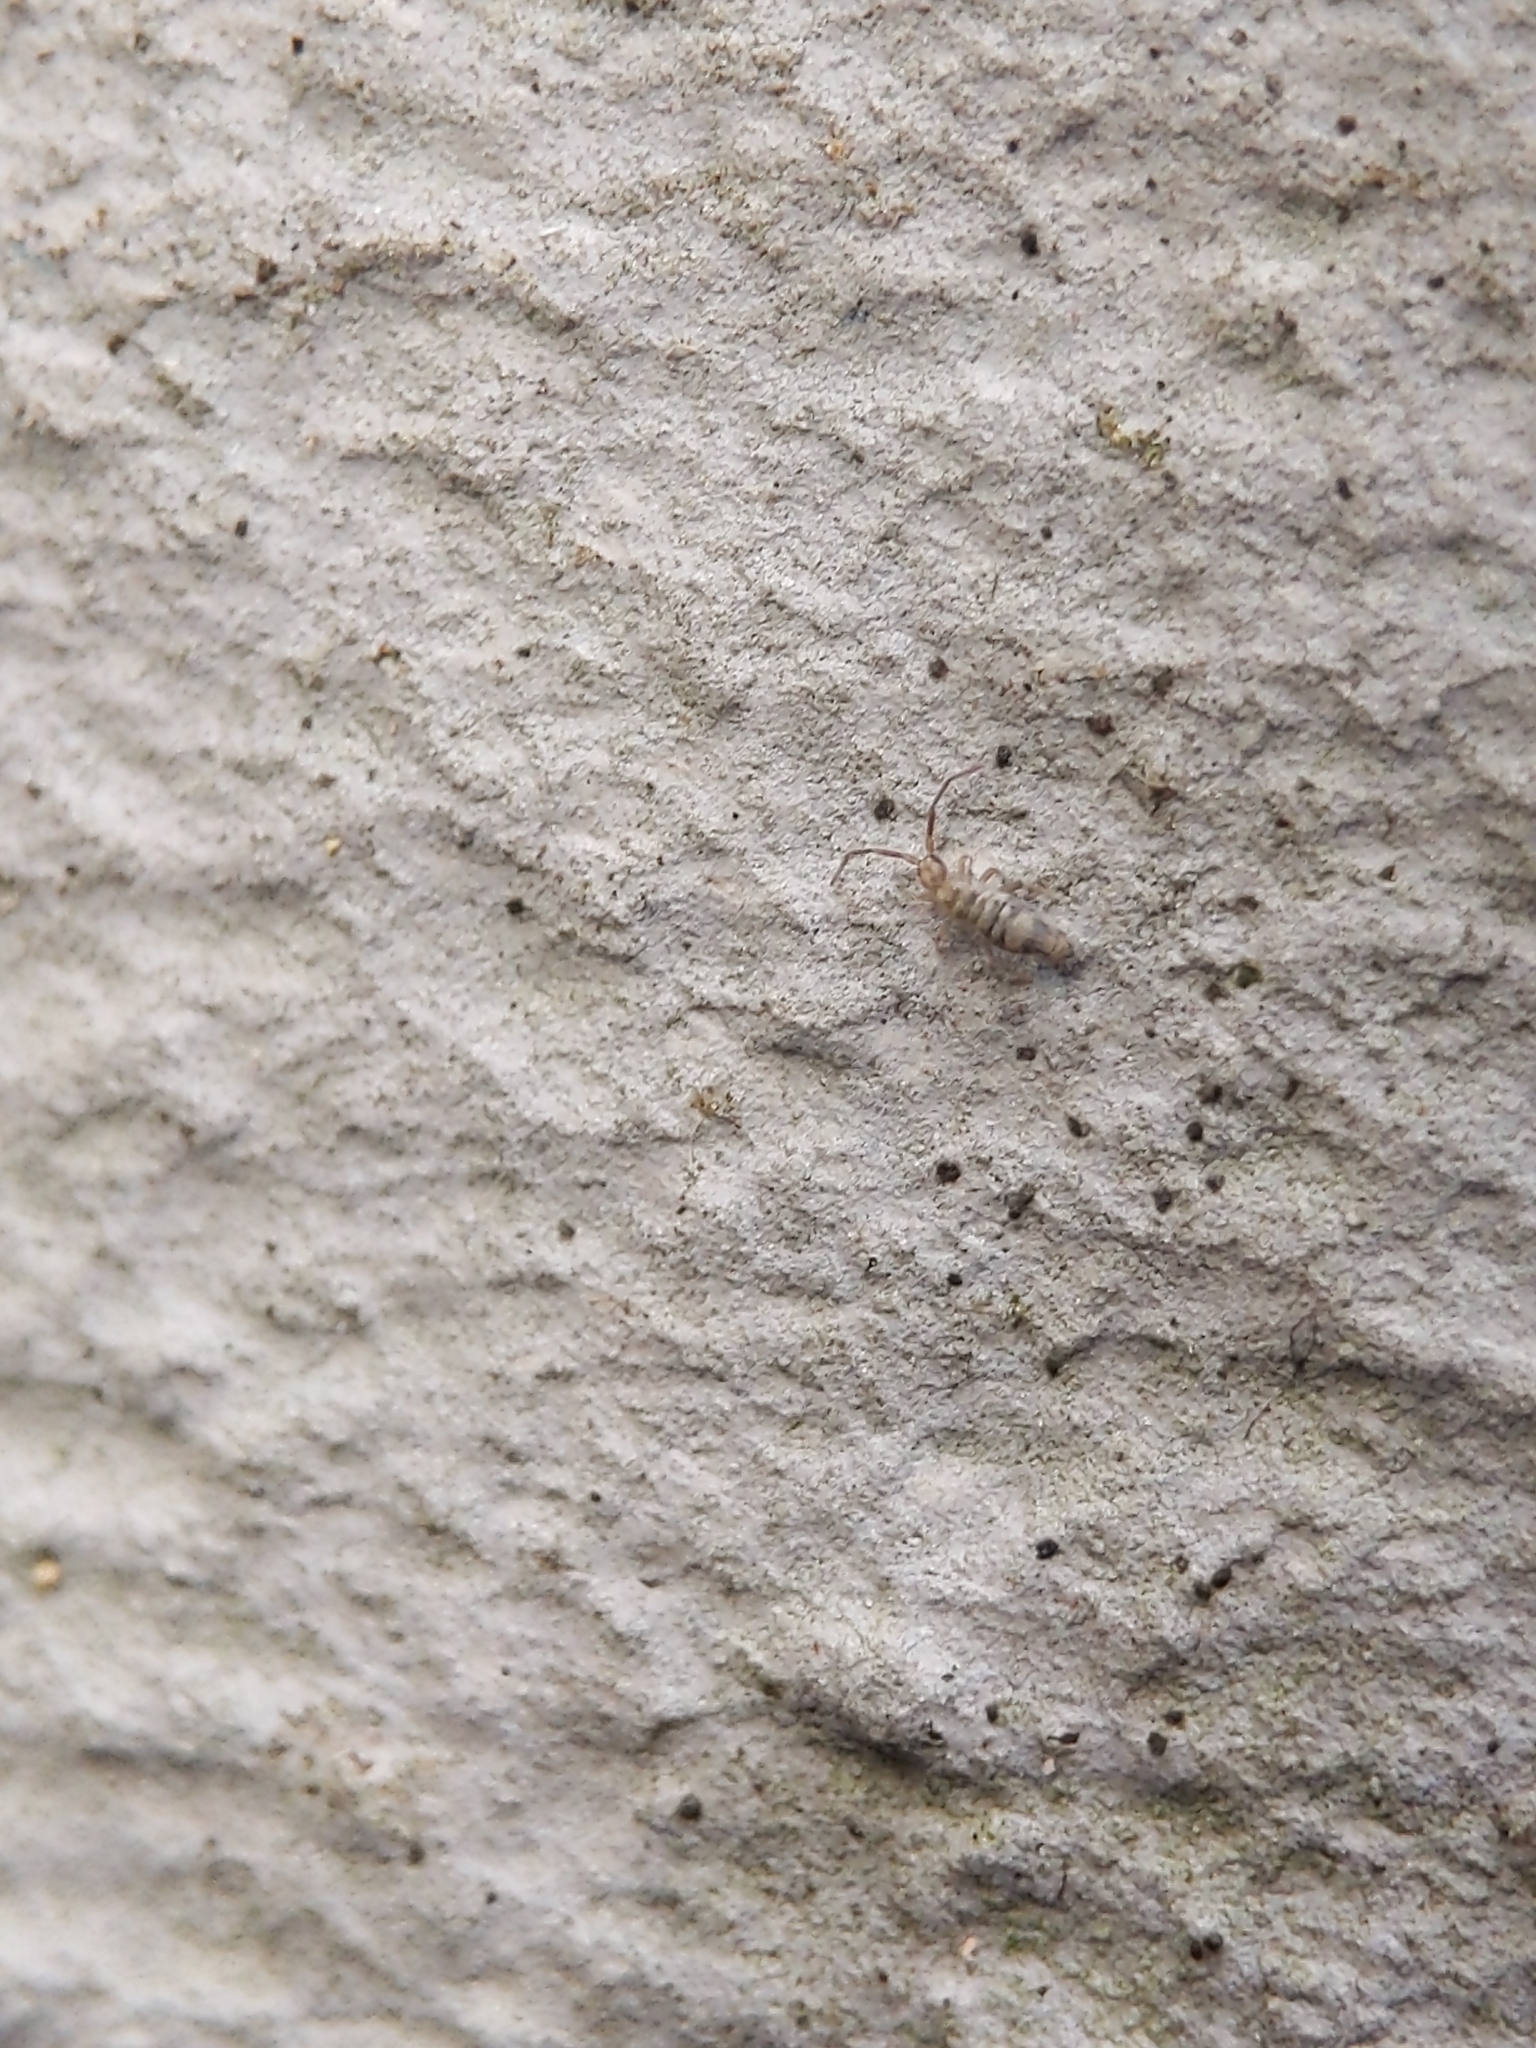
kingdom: Animalia
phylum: Arthropoda
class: Collembola
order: Entomobryomorpha
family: Entomobryidae
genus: Entomobrya
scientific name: Entomobrya nivalis
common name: Cosmopolitan springtail
